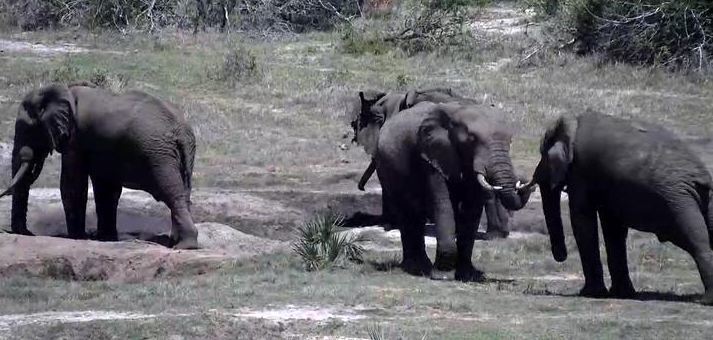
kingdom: Animalia
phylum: Chordata
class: Mammalia
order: Proboscidea
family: Elephantidae
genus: Loxodonta
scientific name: Loxodonta africana
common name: African elephant
